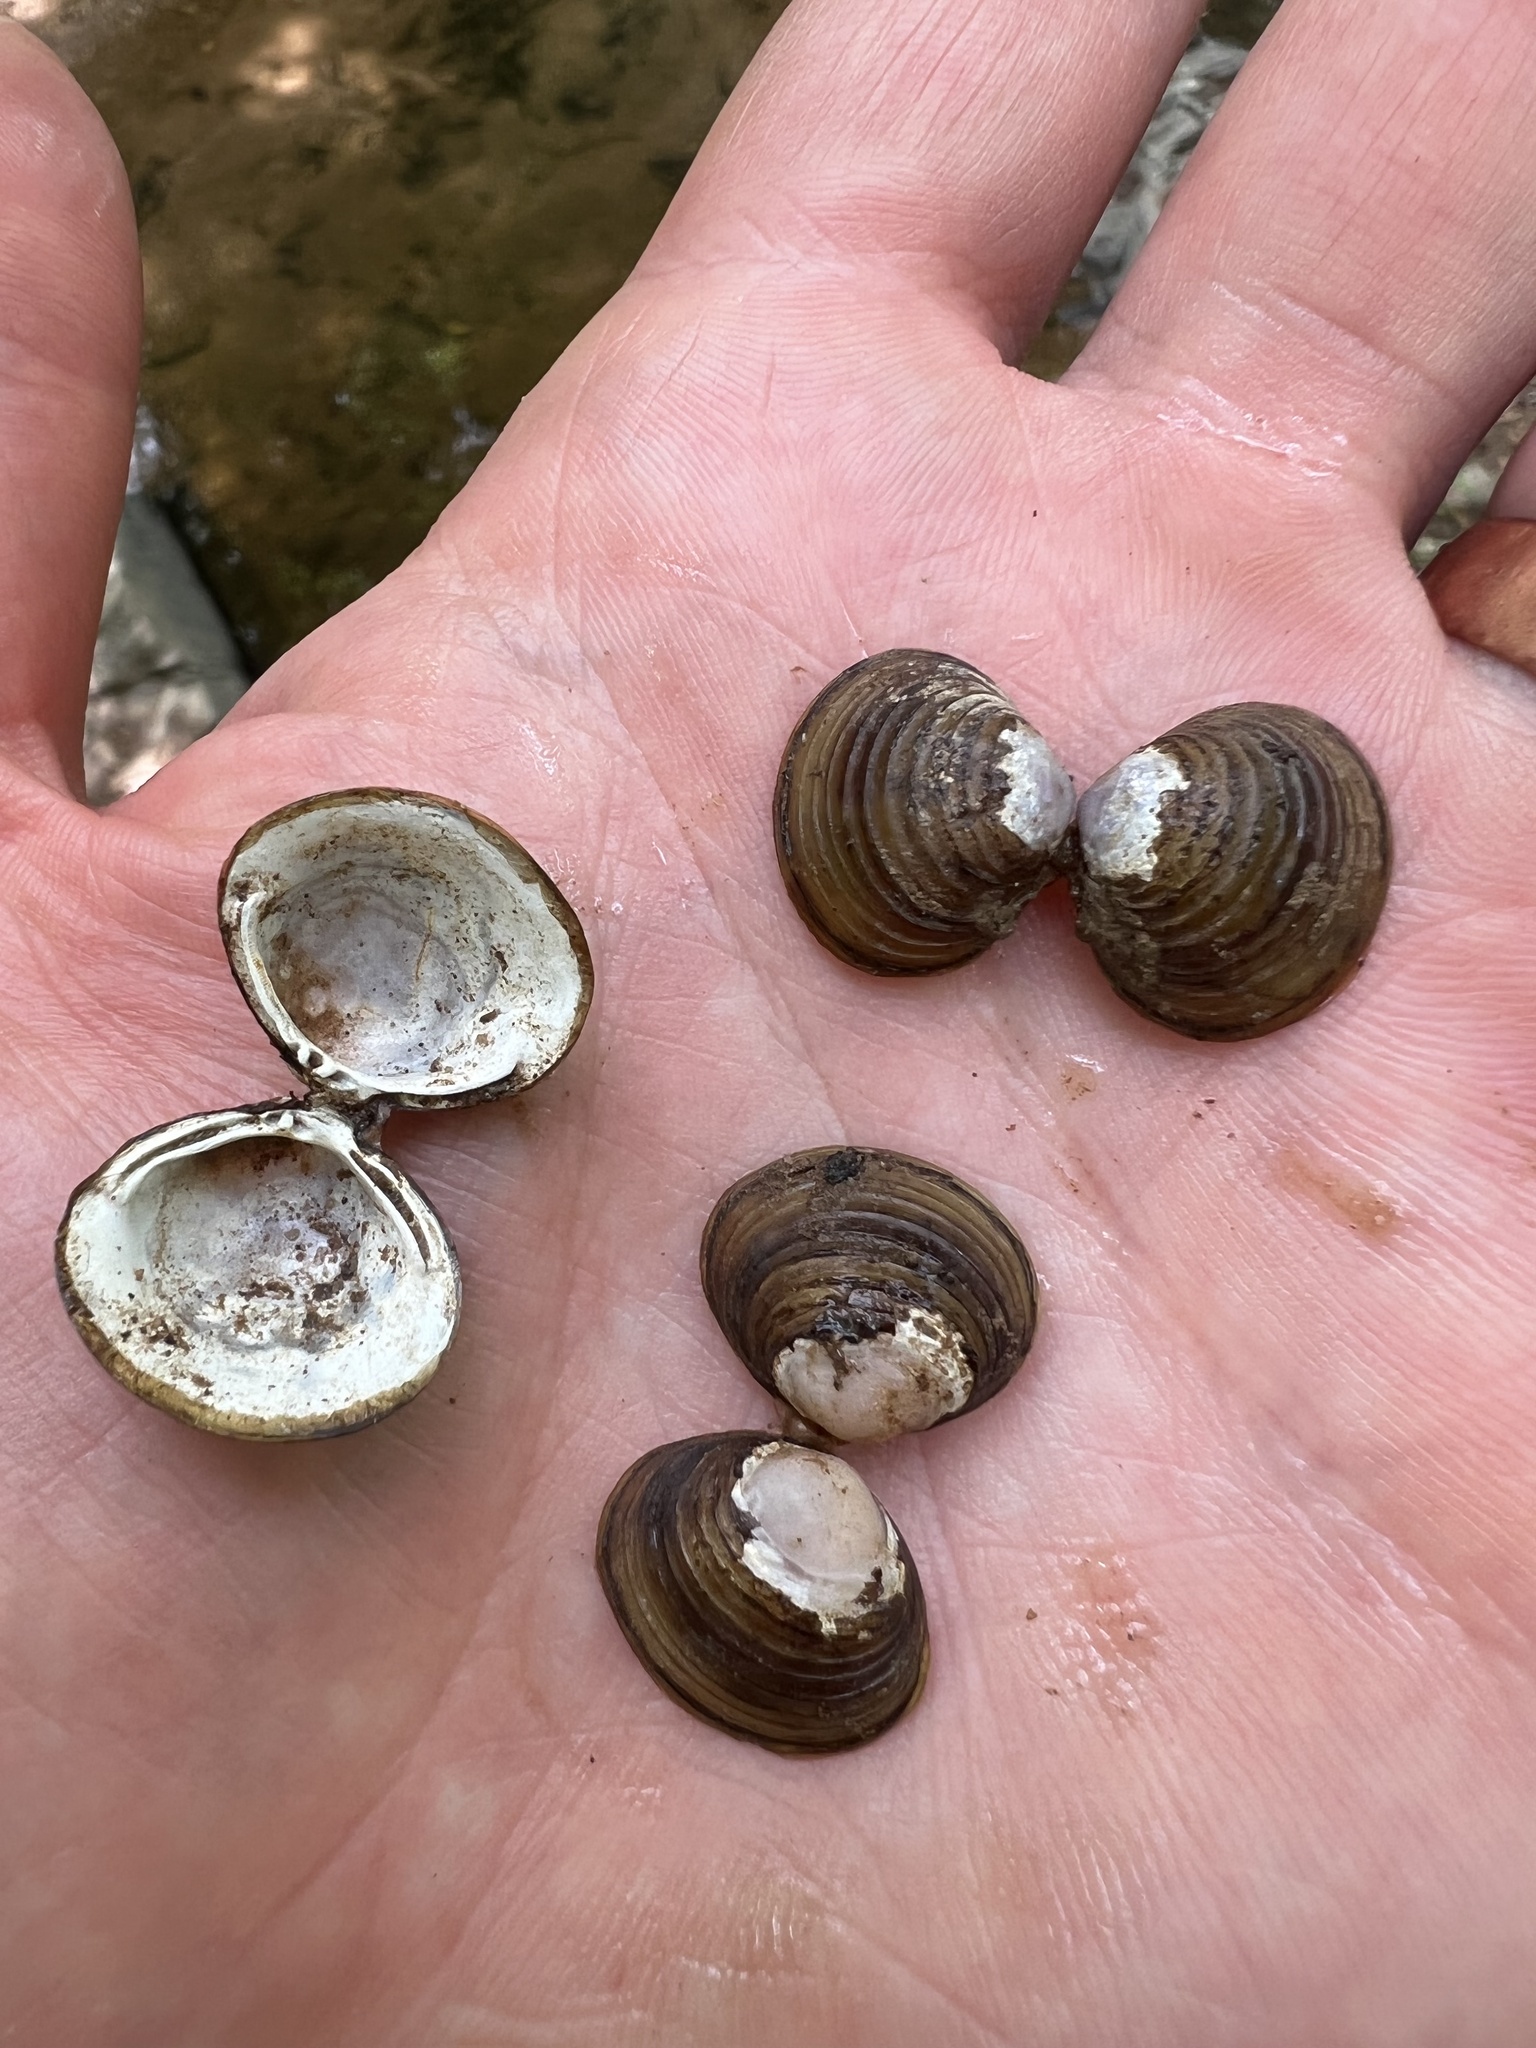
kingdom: Animalia
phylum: Mollusca
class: Bivalvia
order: Venerida
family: Cyrenidae
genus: Corbicula
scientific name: Corbicula fluminea
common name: Asian clam
